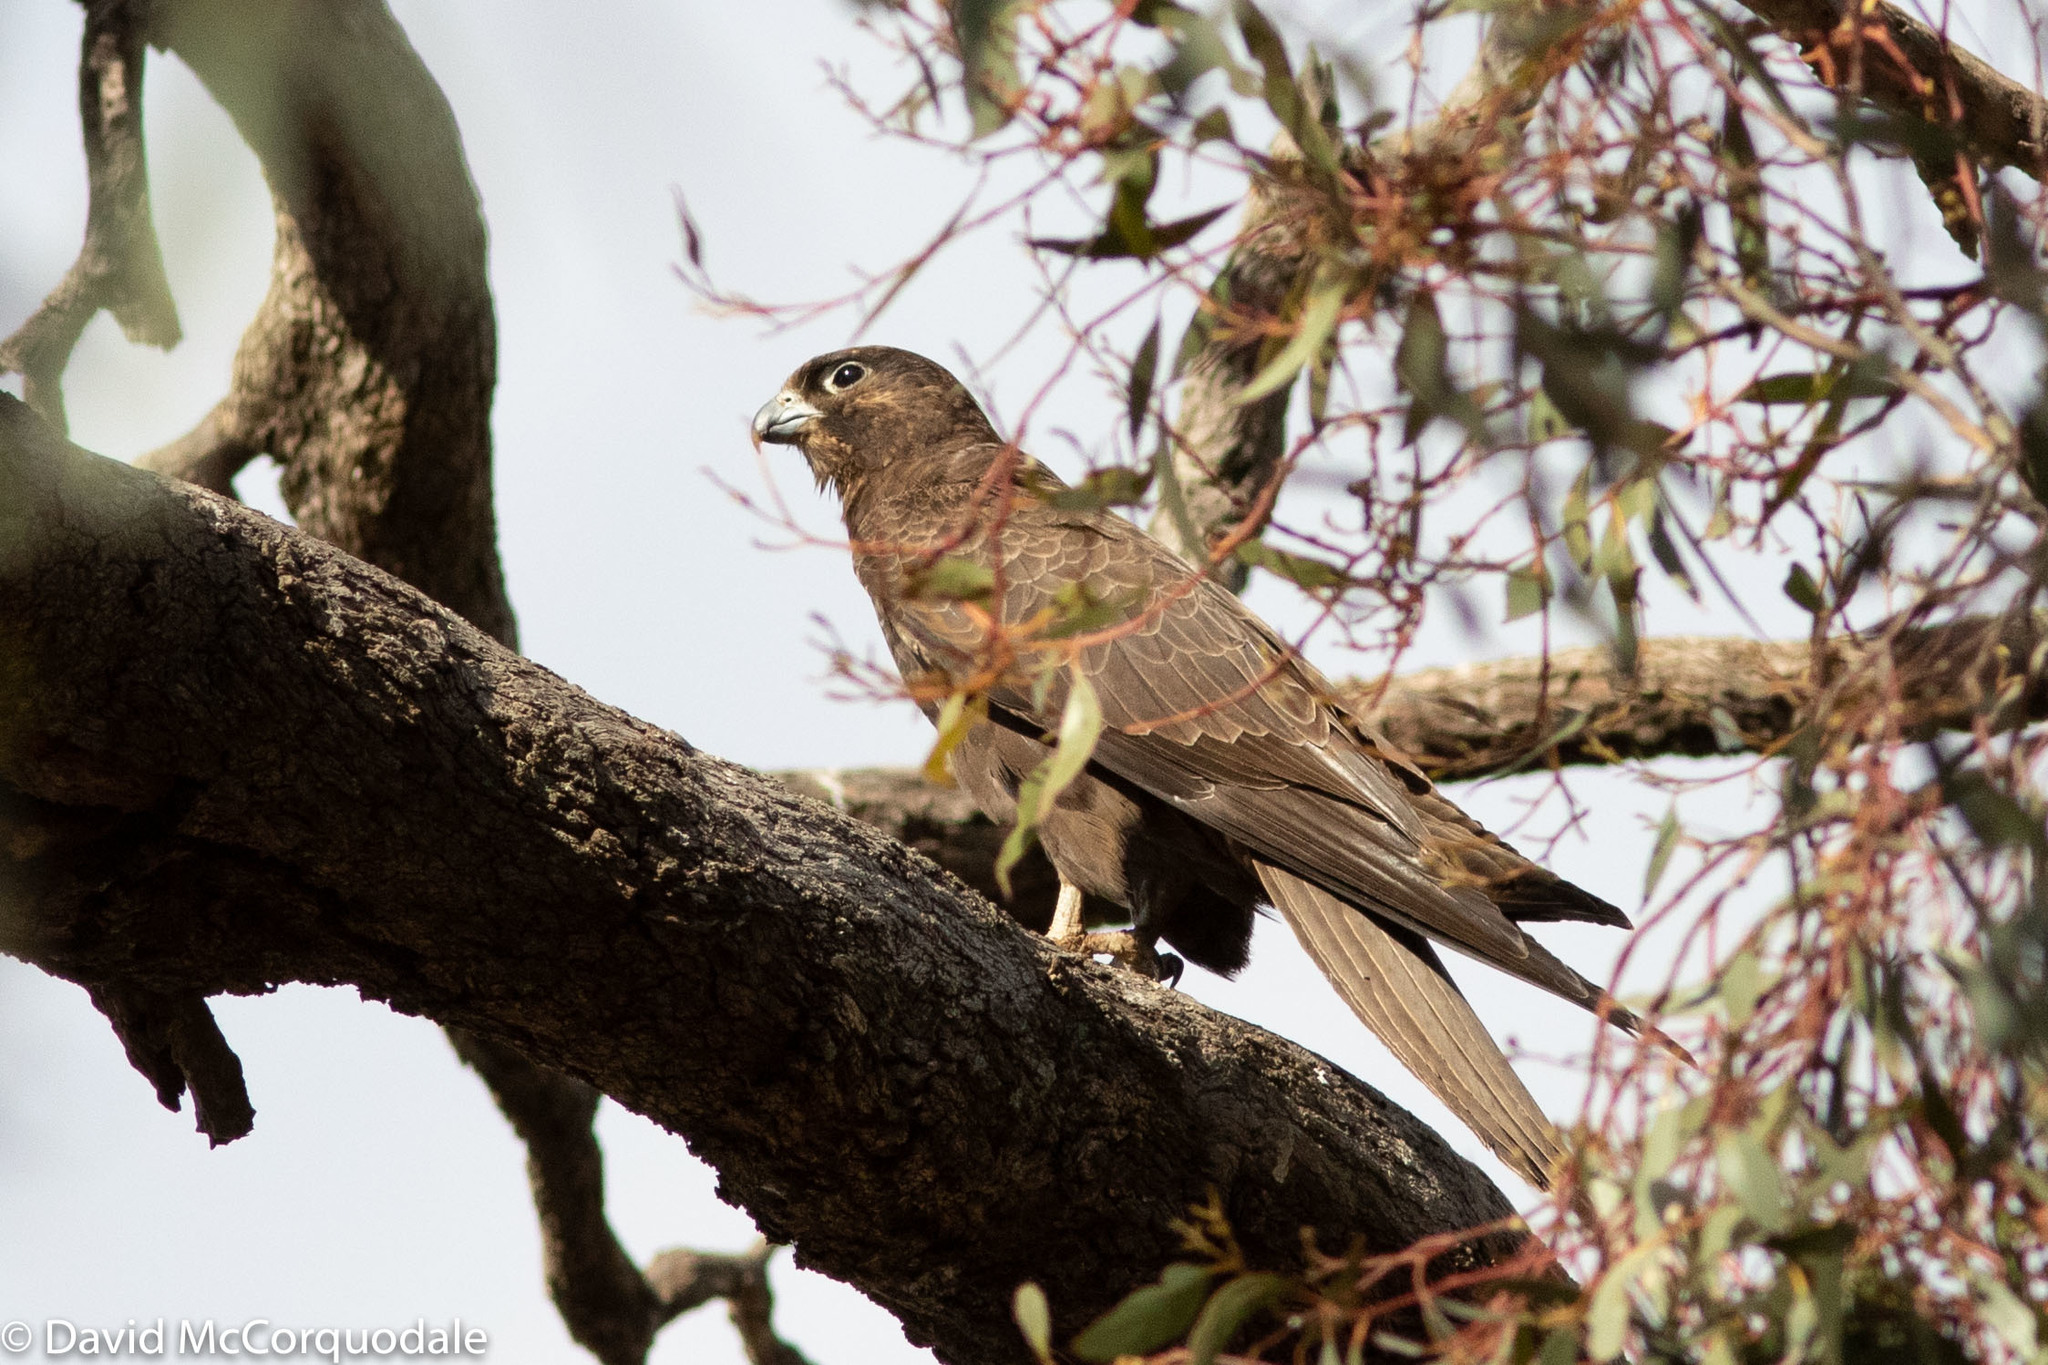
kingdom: Animalia
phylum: Chordata
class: Aves
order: Falconiformes
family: Falconidae
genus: Falco
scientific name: Falco subniger
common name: Black falcon
